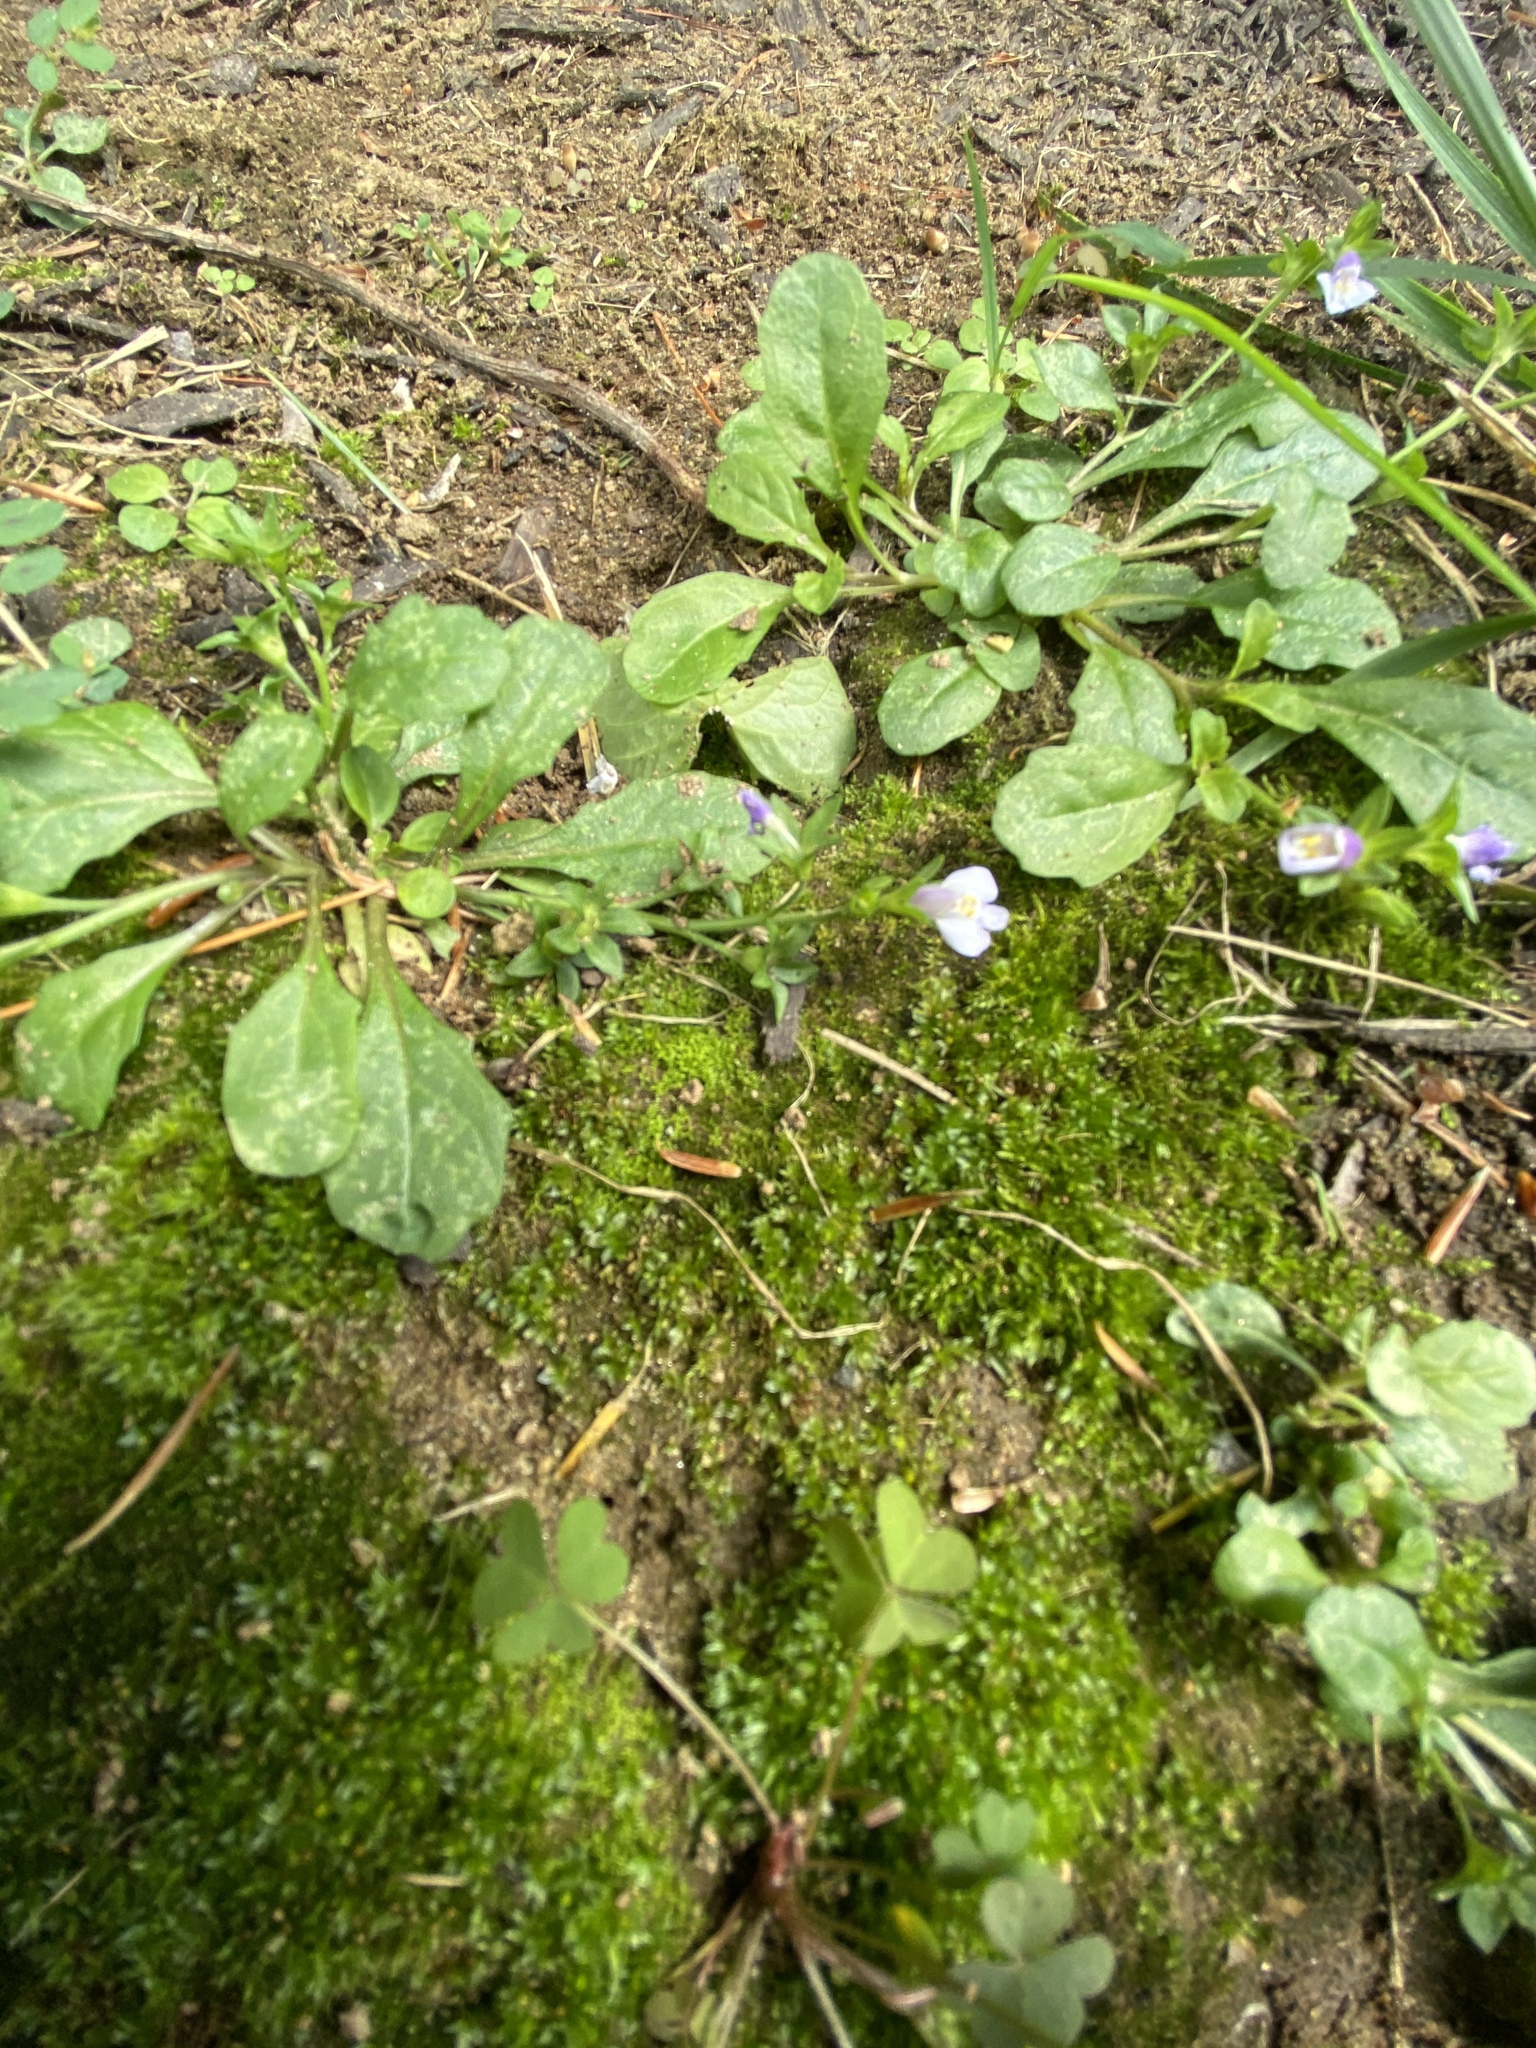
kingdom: Plantae
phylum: Tracheophyta
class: Magnoliopsida
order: Lamiales
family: Mazaceae
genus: Mazus
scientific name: Mazus pumilus
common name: Japanese mazus
